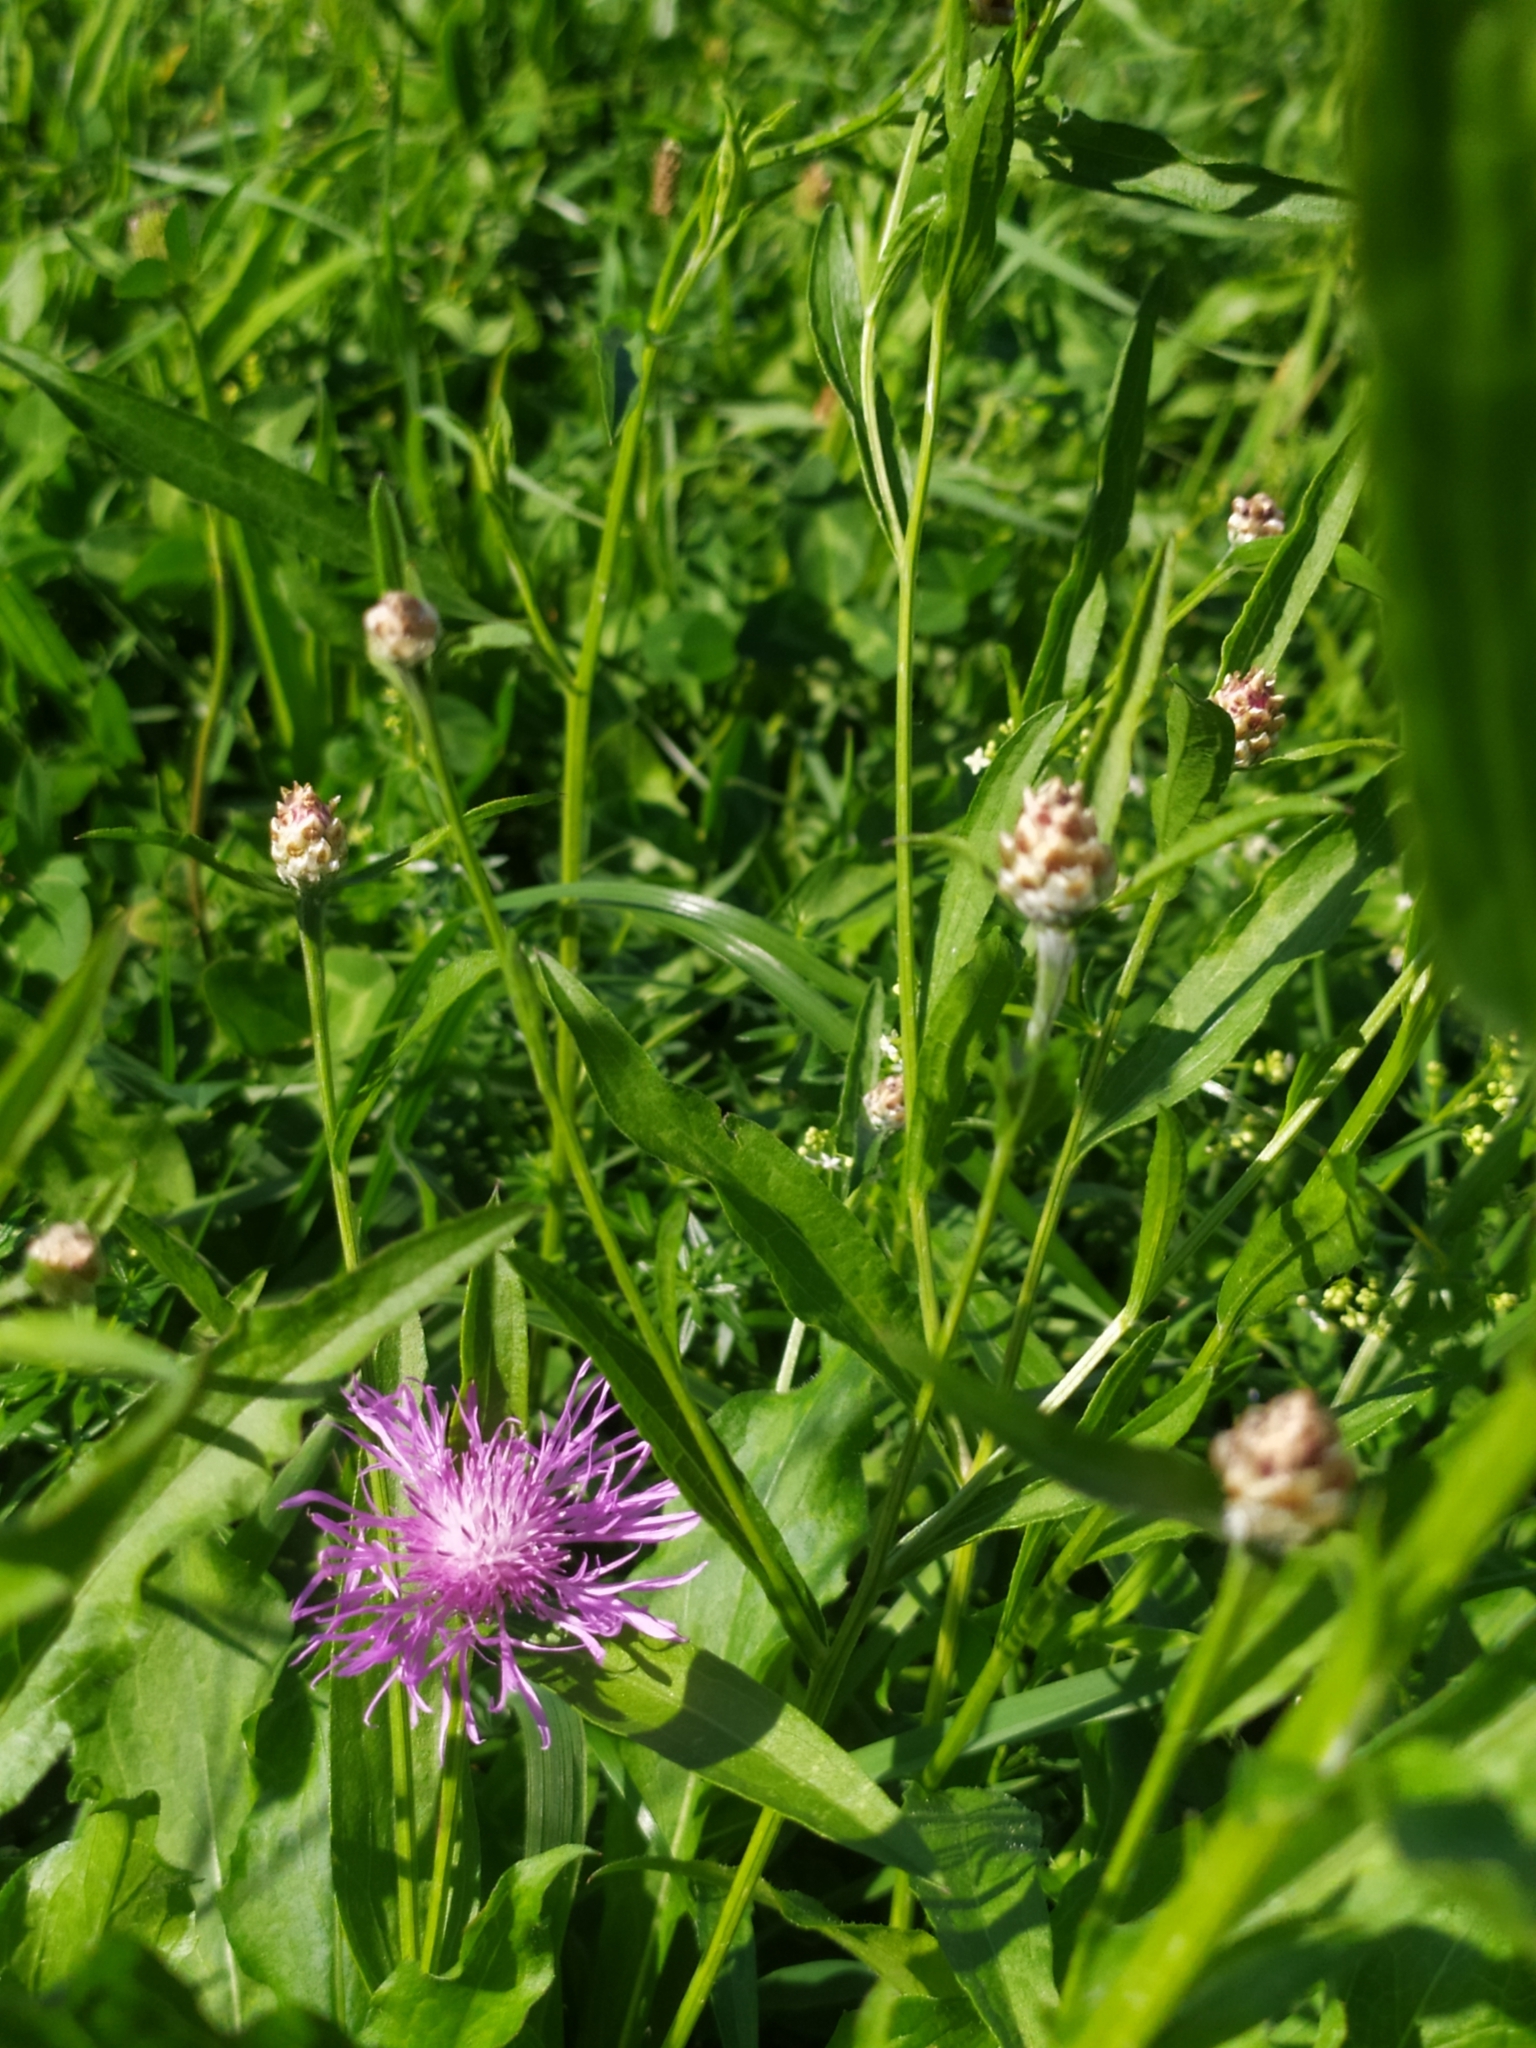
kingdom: Plantae
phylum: Tracheophyta
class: Magnoliopsida
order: Asterales
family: Asteraceae
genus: Centaurea
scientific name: Centaurea jacea
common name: Brown knapweed
